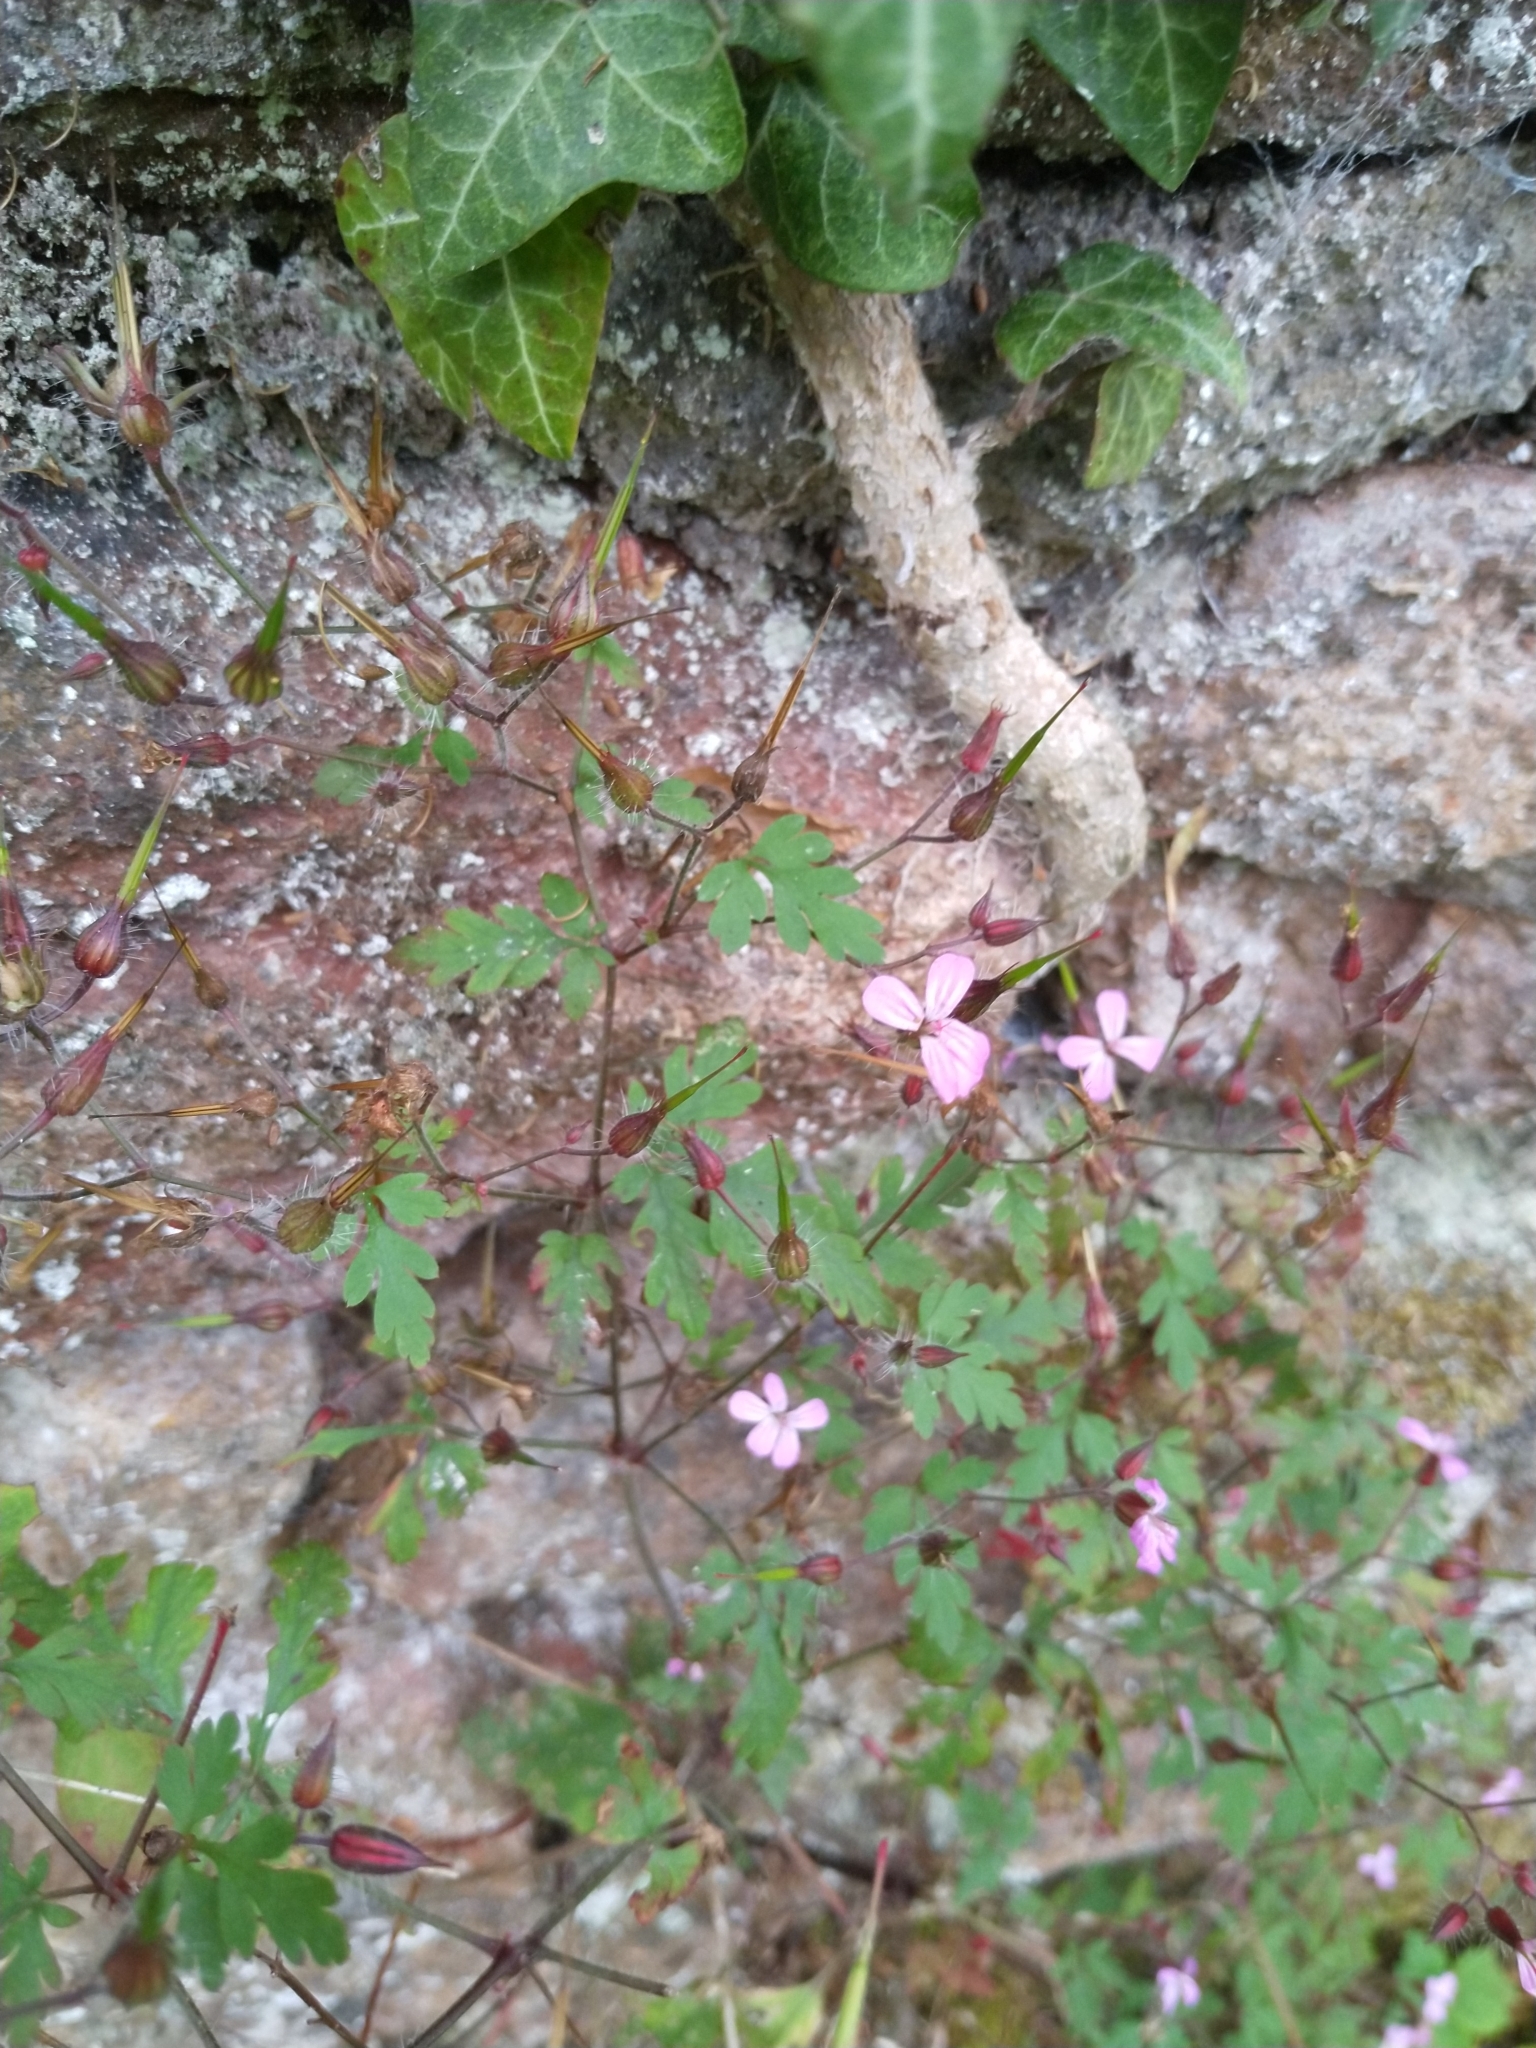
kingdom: Plantae
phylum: Tracheophyta
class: Magnoliopsida
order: Geraniales
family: Geraniaceae
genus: Geranium
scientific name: Geranium robertianum
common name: Herb-robert
